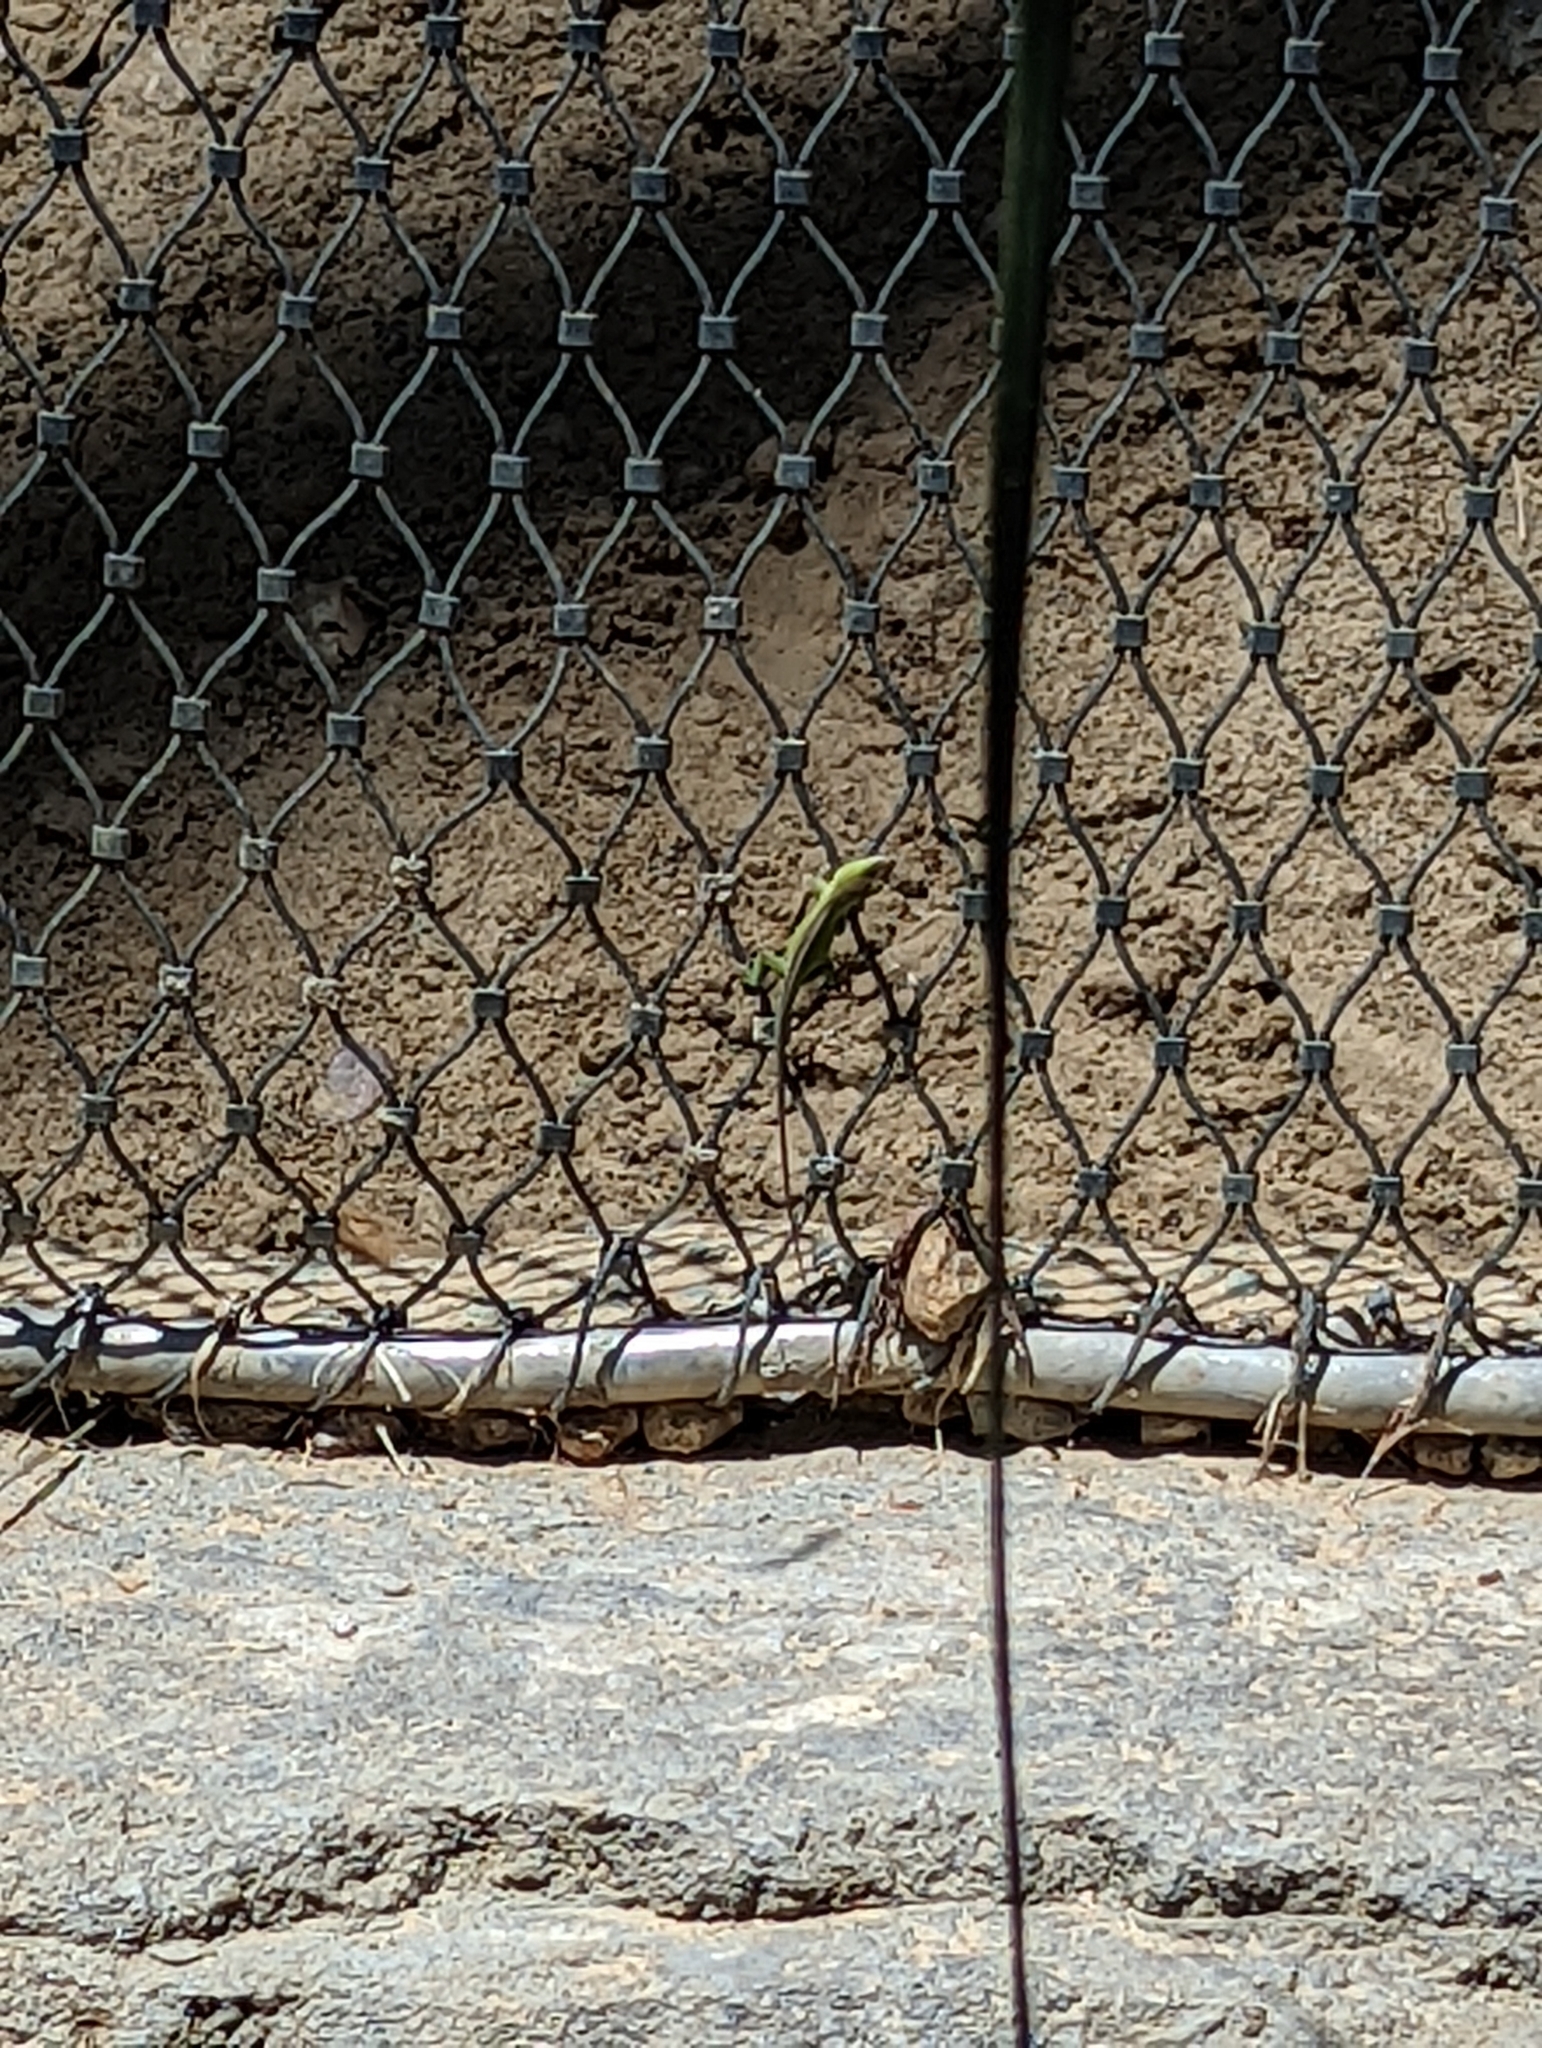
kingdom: Animalia
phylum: Chordata
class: Squamata
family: Dactyloidae
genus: Anolis
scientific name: Anolis carolinensis
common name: Green anole
